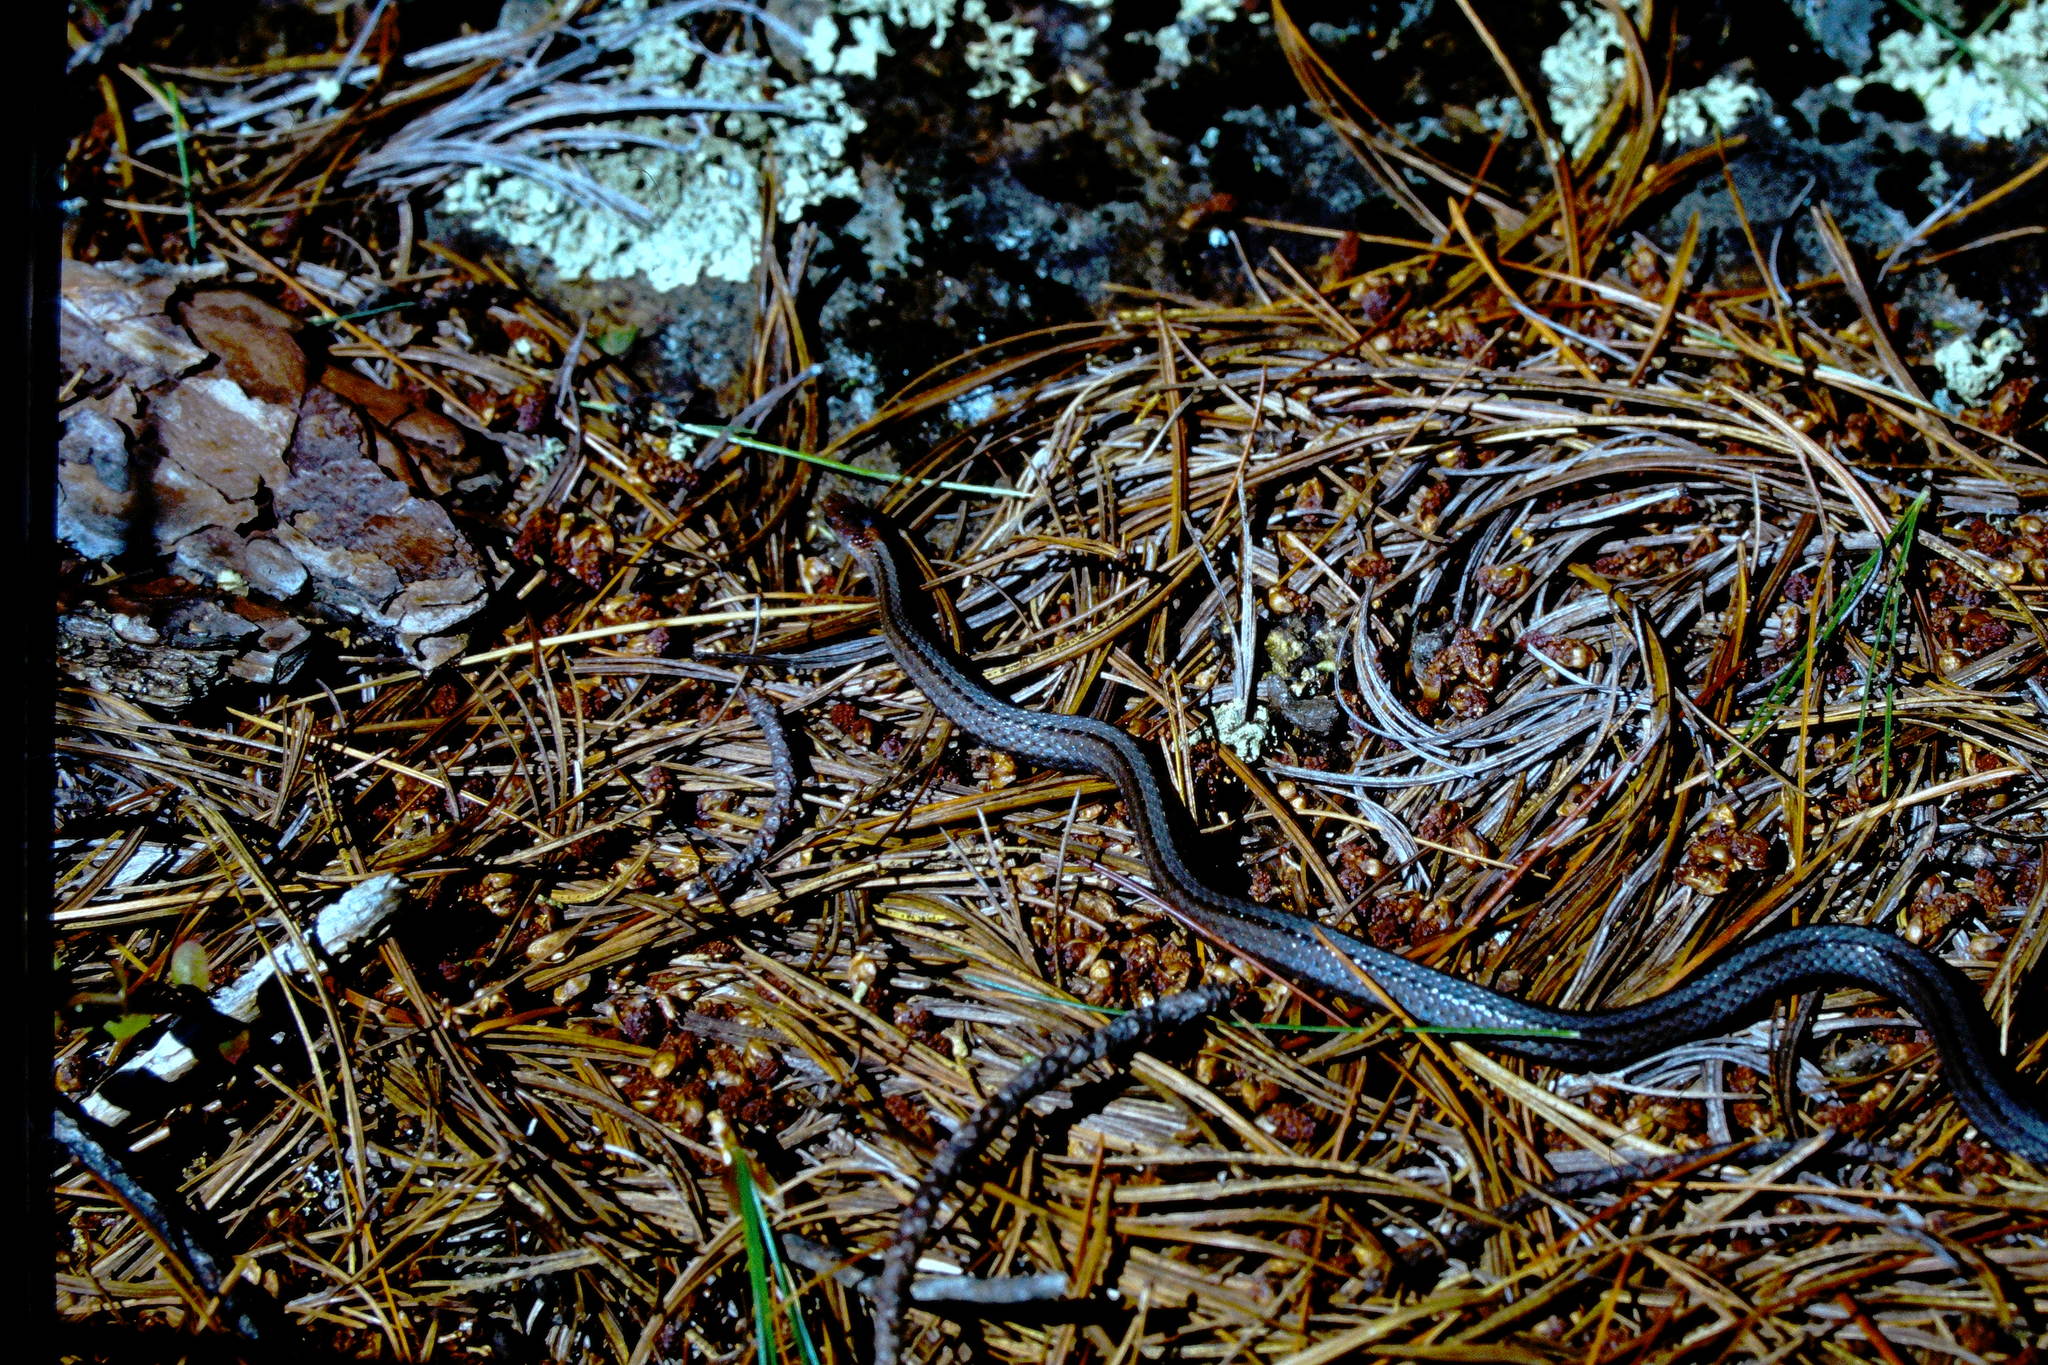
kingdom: Animalia
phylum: Chordata
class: Squamata
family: Colubridae
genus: Storeria
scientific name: Storeria occipitomaculata
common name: Redbelly snake
